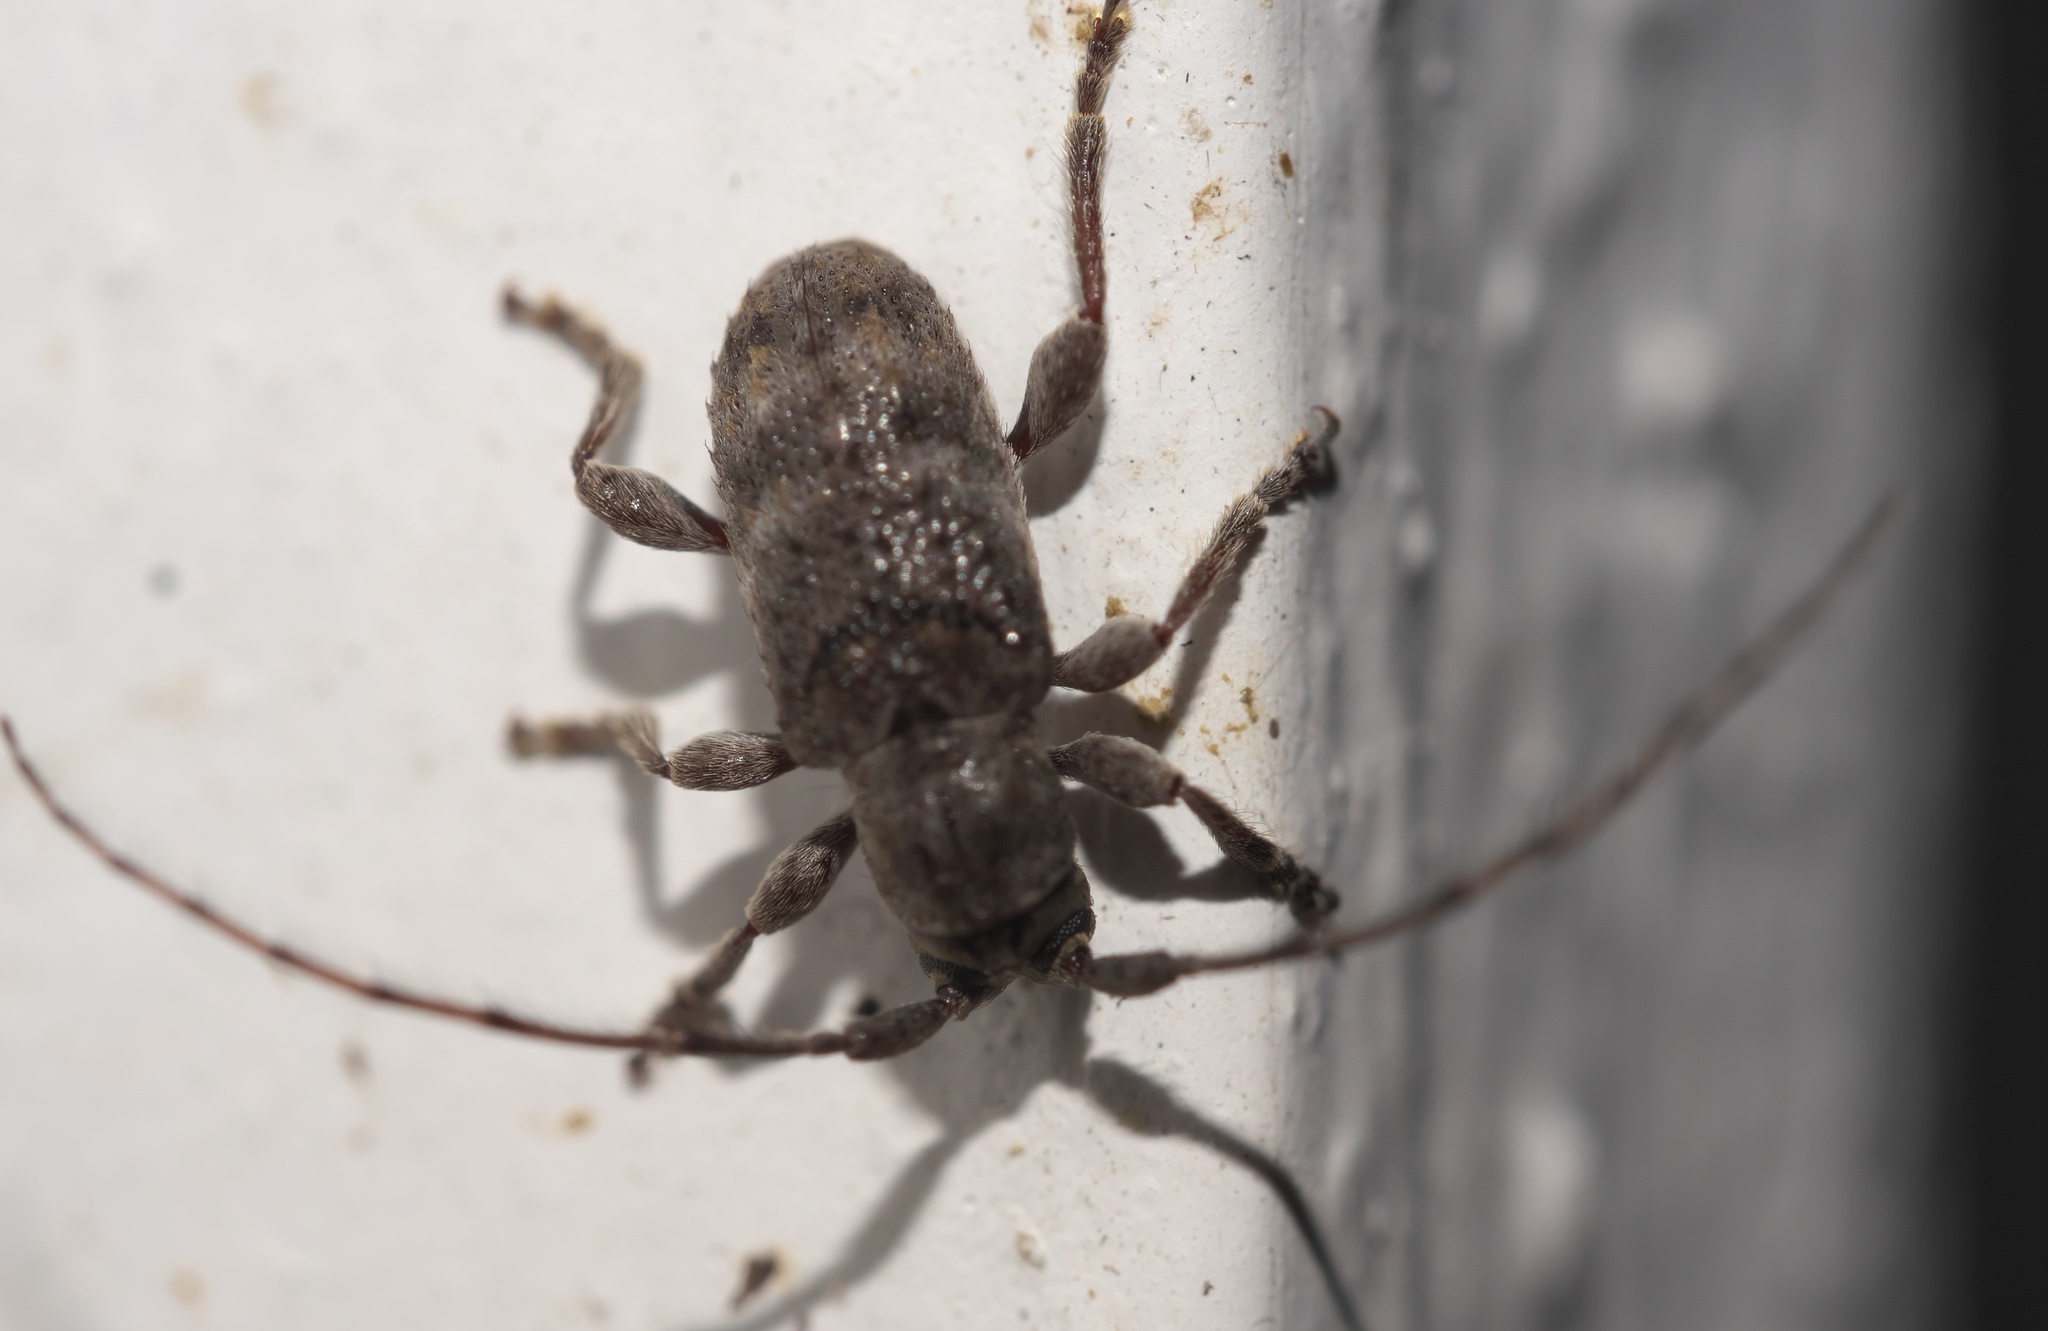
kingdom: Animalia
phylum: Arthropoda
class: Insecta
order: Coleoptera
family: Cerambycidae
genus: Ecyrus
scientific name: Ecyrus dasycerus
